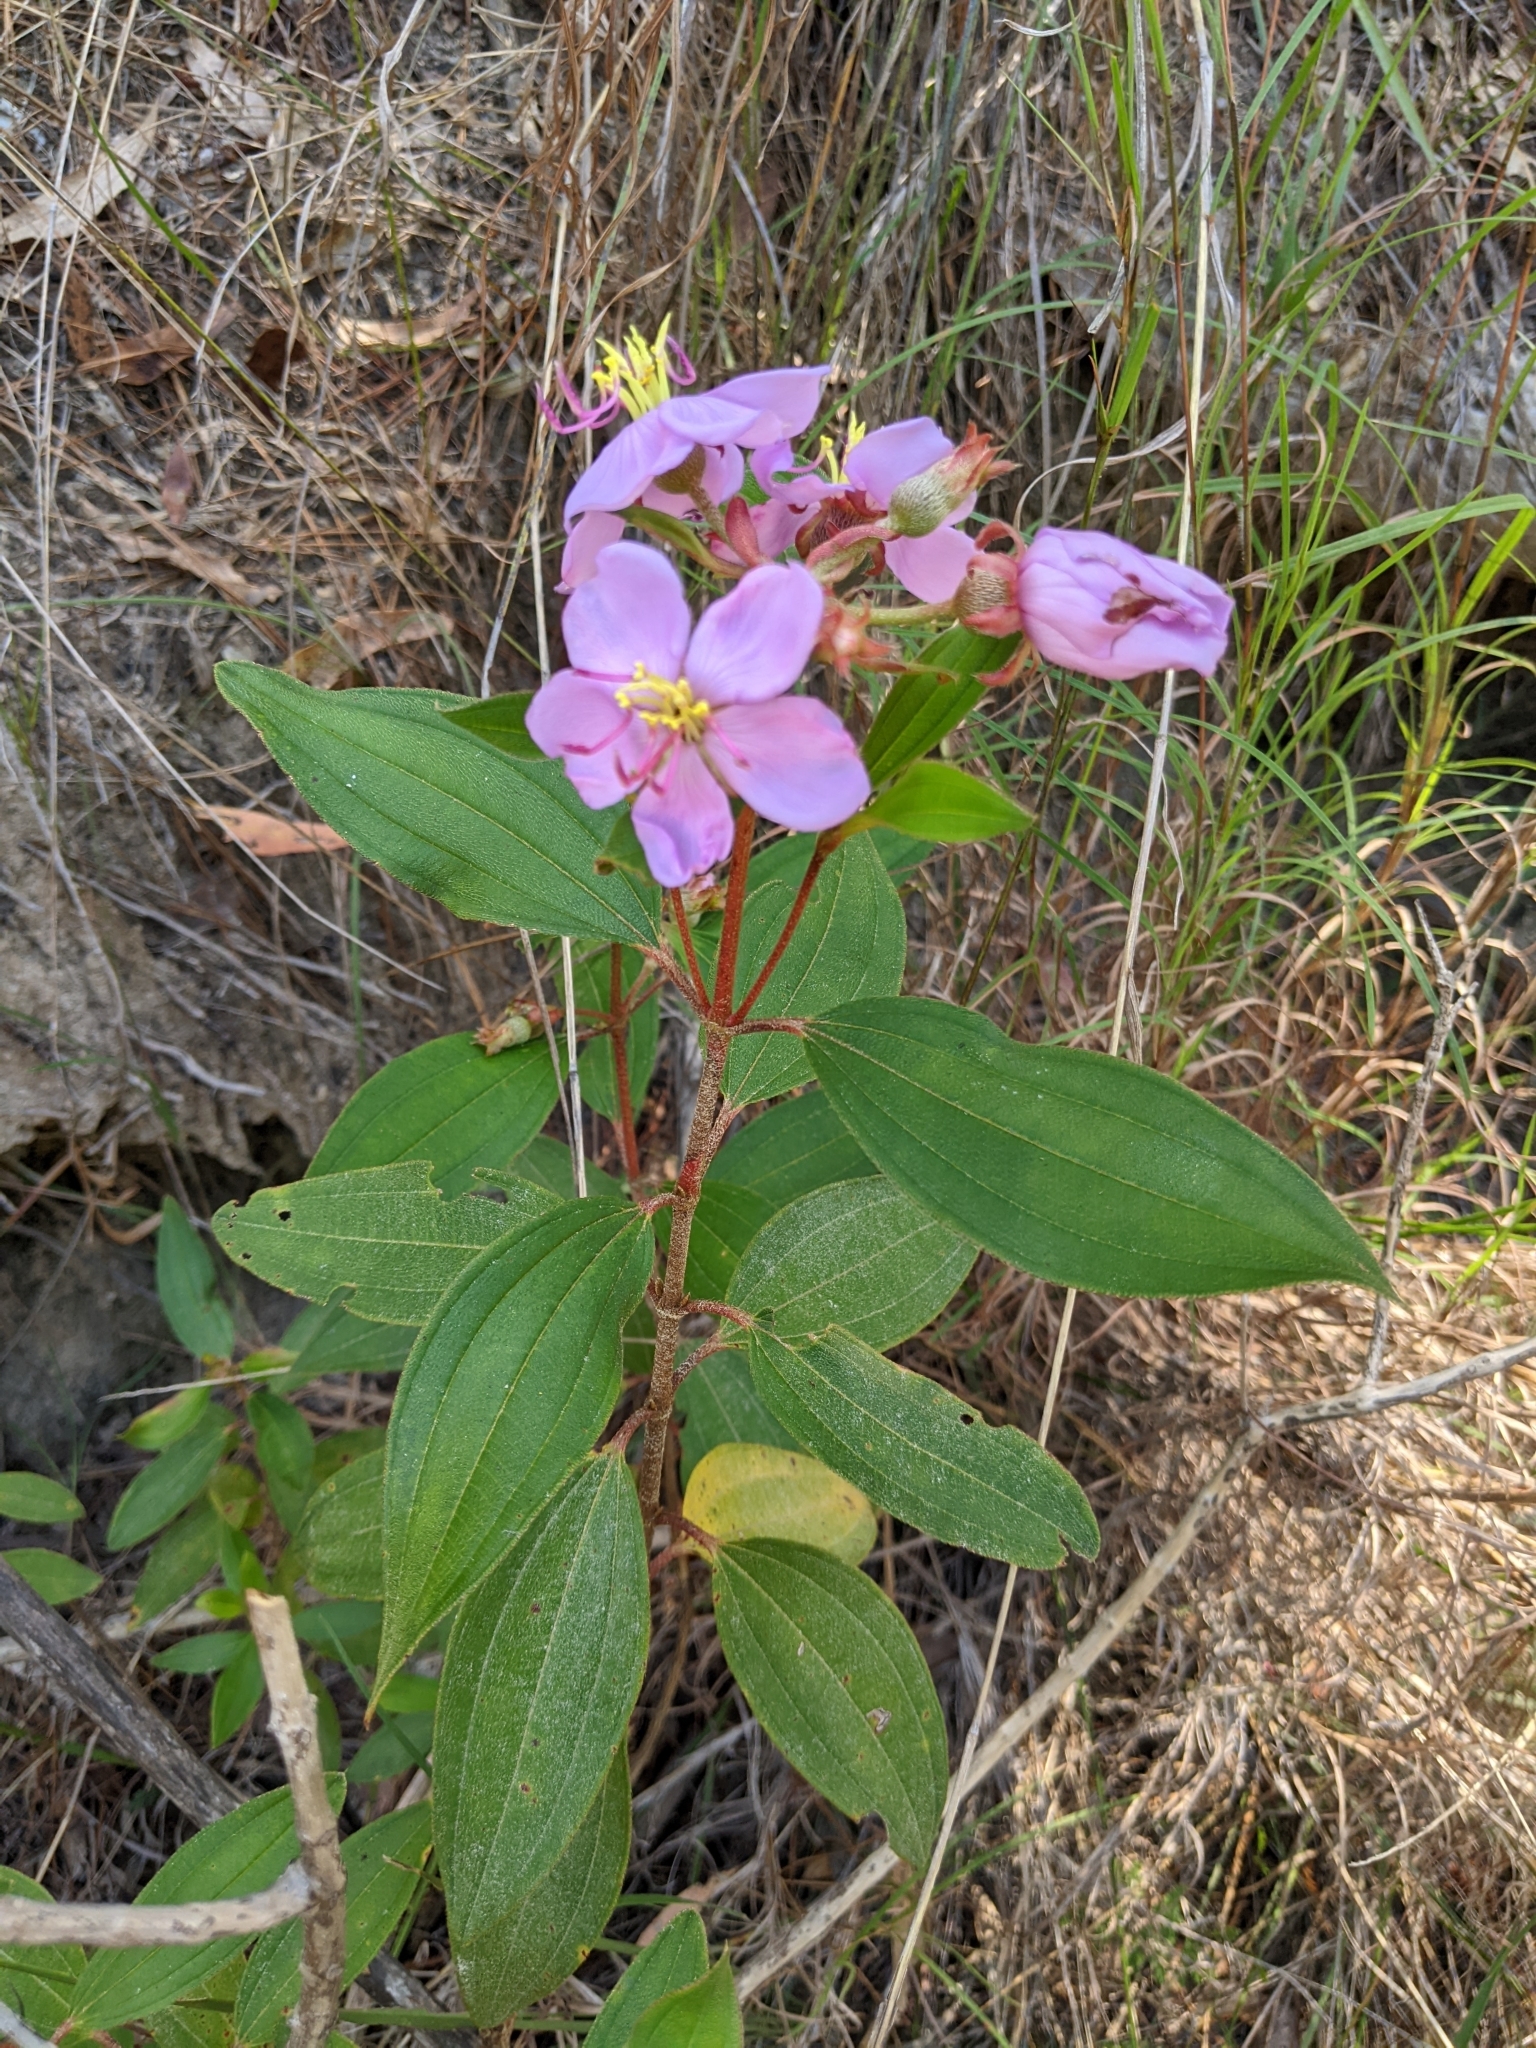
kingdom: Plantae
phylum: Tracheophyta
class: Magnoliopsida
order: Myrtales
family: Melastomataceae
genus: Melastoma
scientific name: Melastoma malabathricum
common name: Indian-rhododendron
